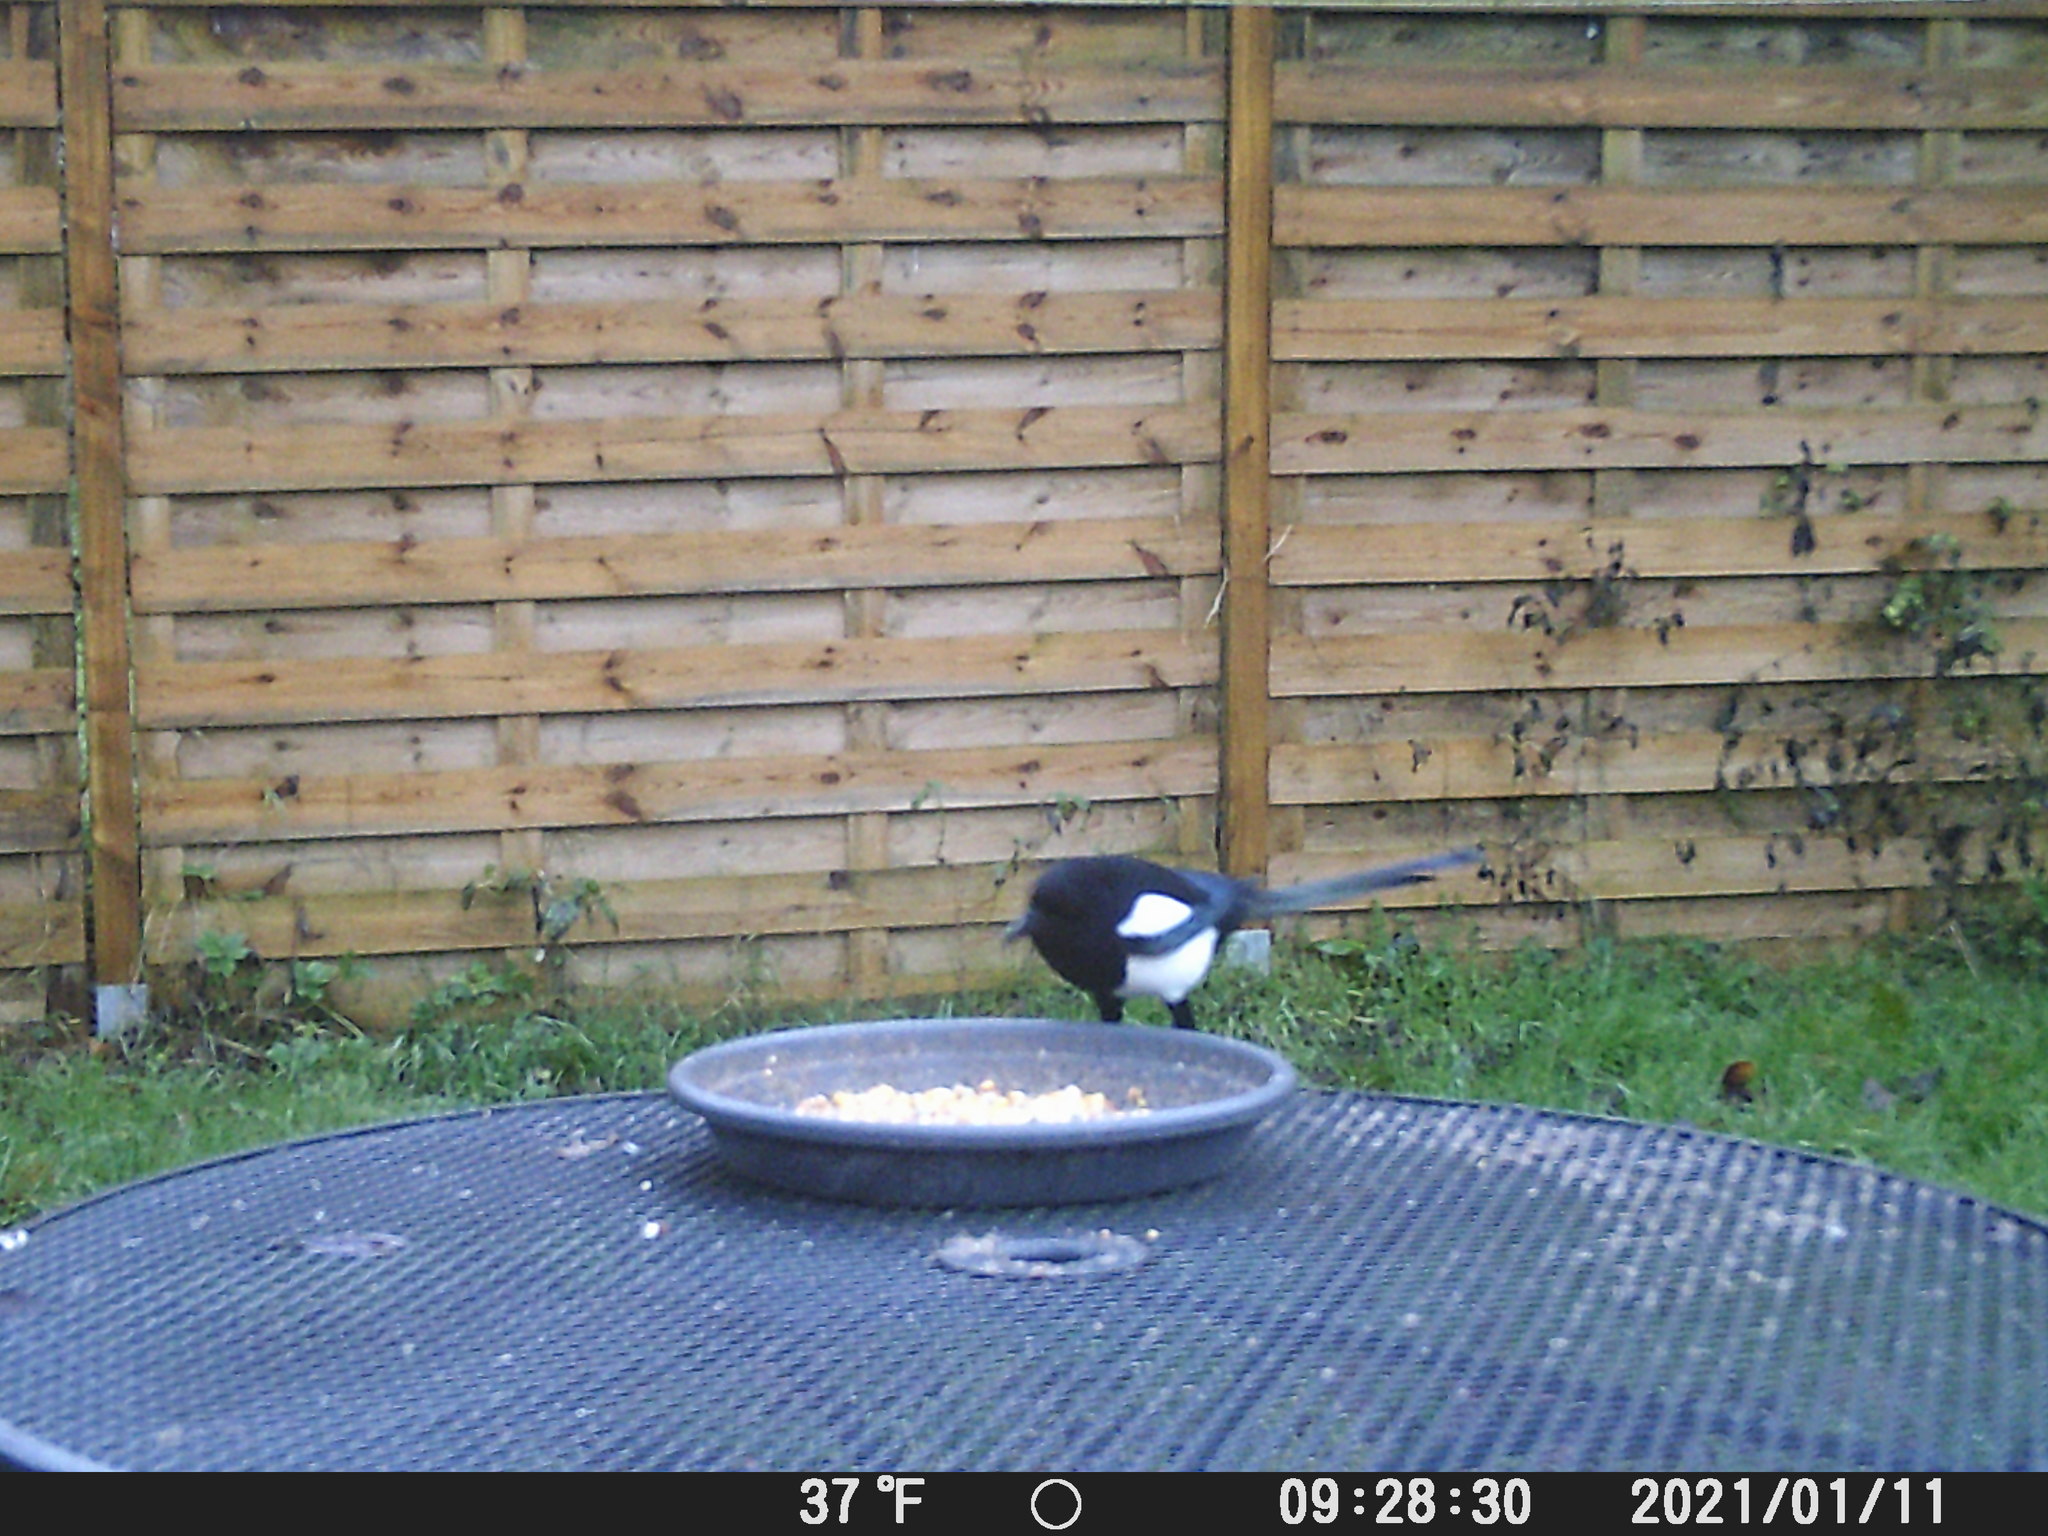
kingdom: Animalia
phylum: Chordata
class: Aves
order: Passeriformes
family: Corvidae
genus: Pica
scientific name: Pica pica
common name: Eurasian magpie
